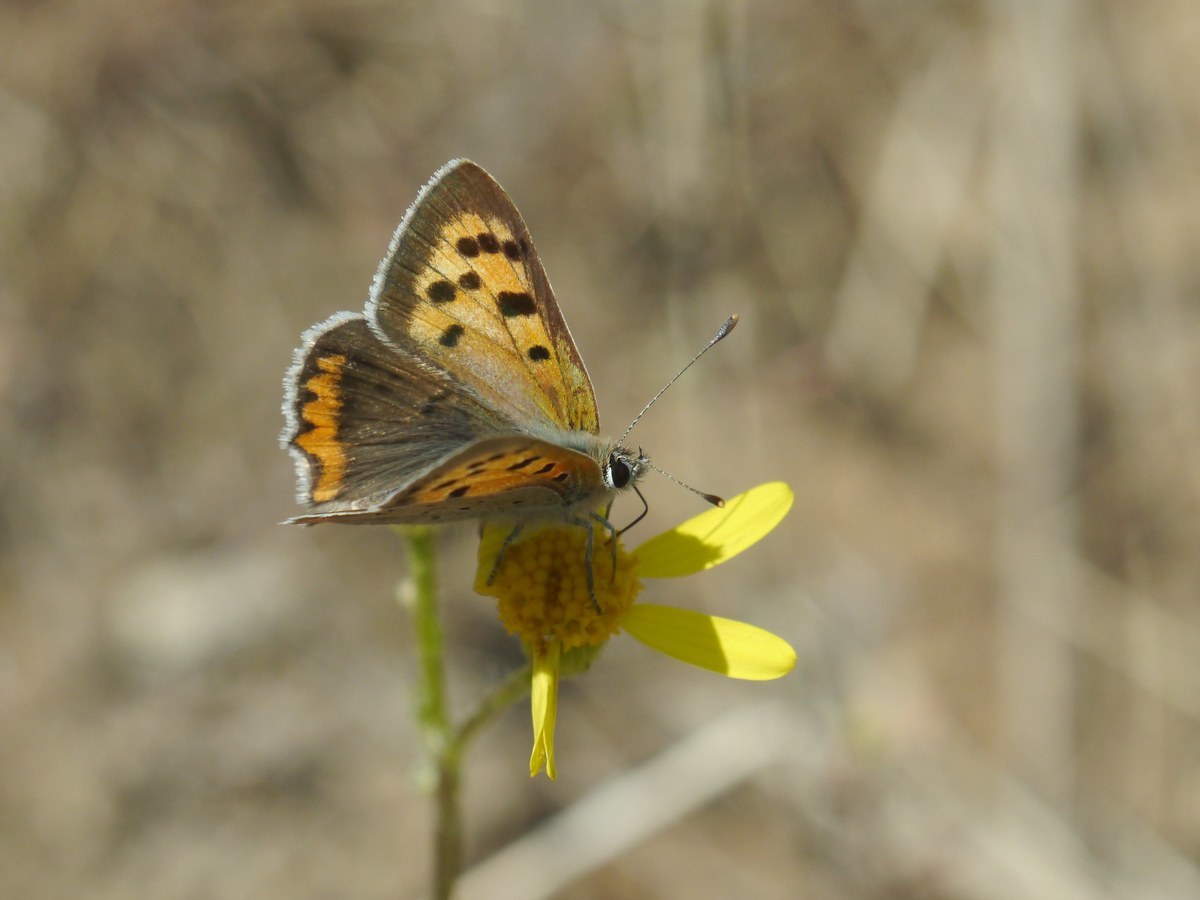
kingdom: Animalia
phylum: Arthropoda
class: Insecta
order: Lepidoptera
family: Lycaenidae
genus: Lycaena
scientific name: Lycaena phlaeas
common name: Small copper
